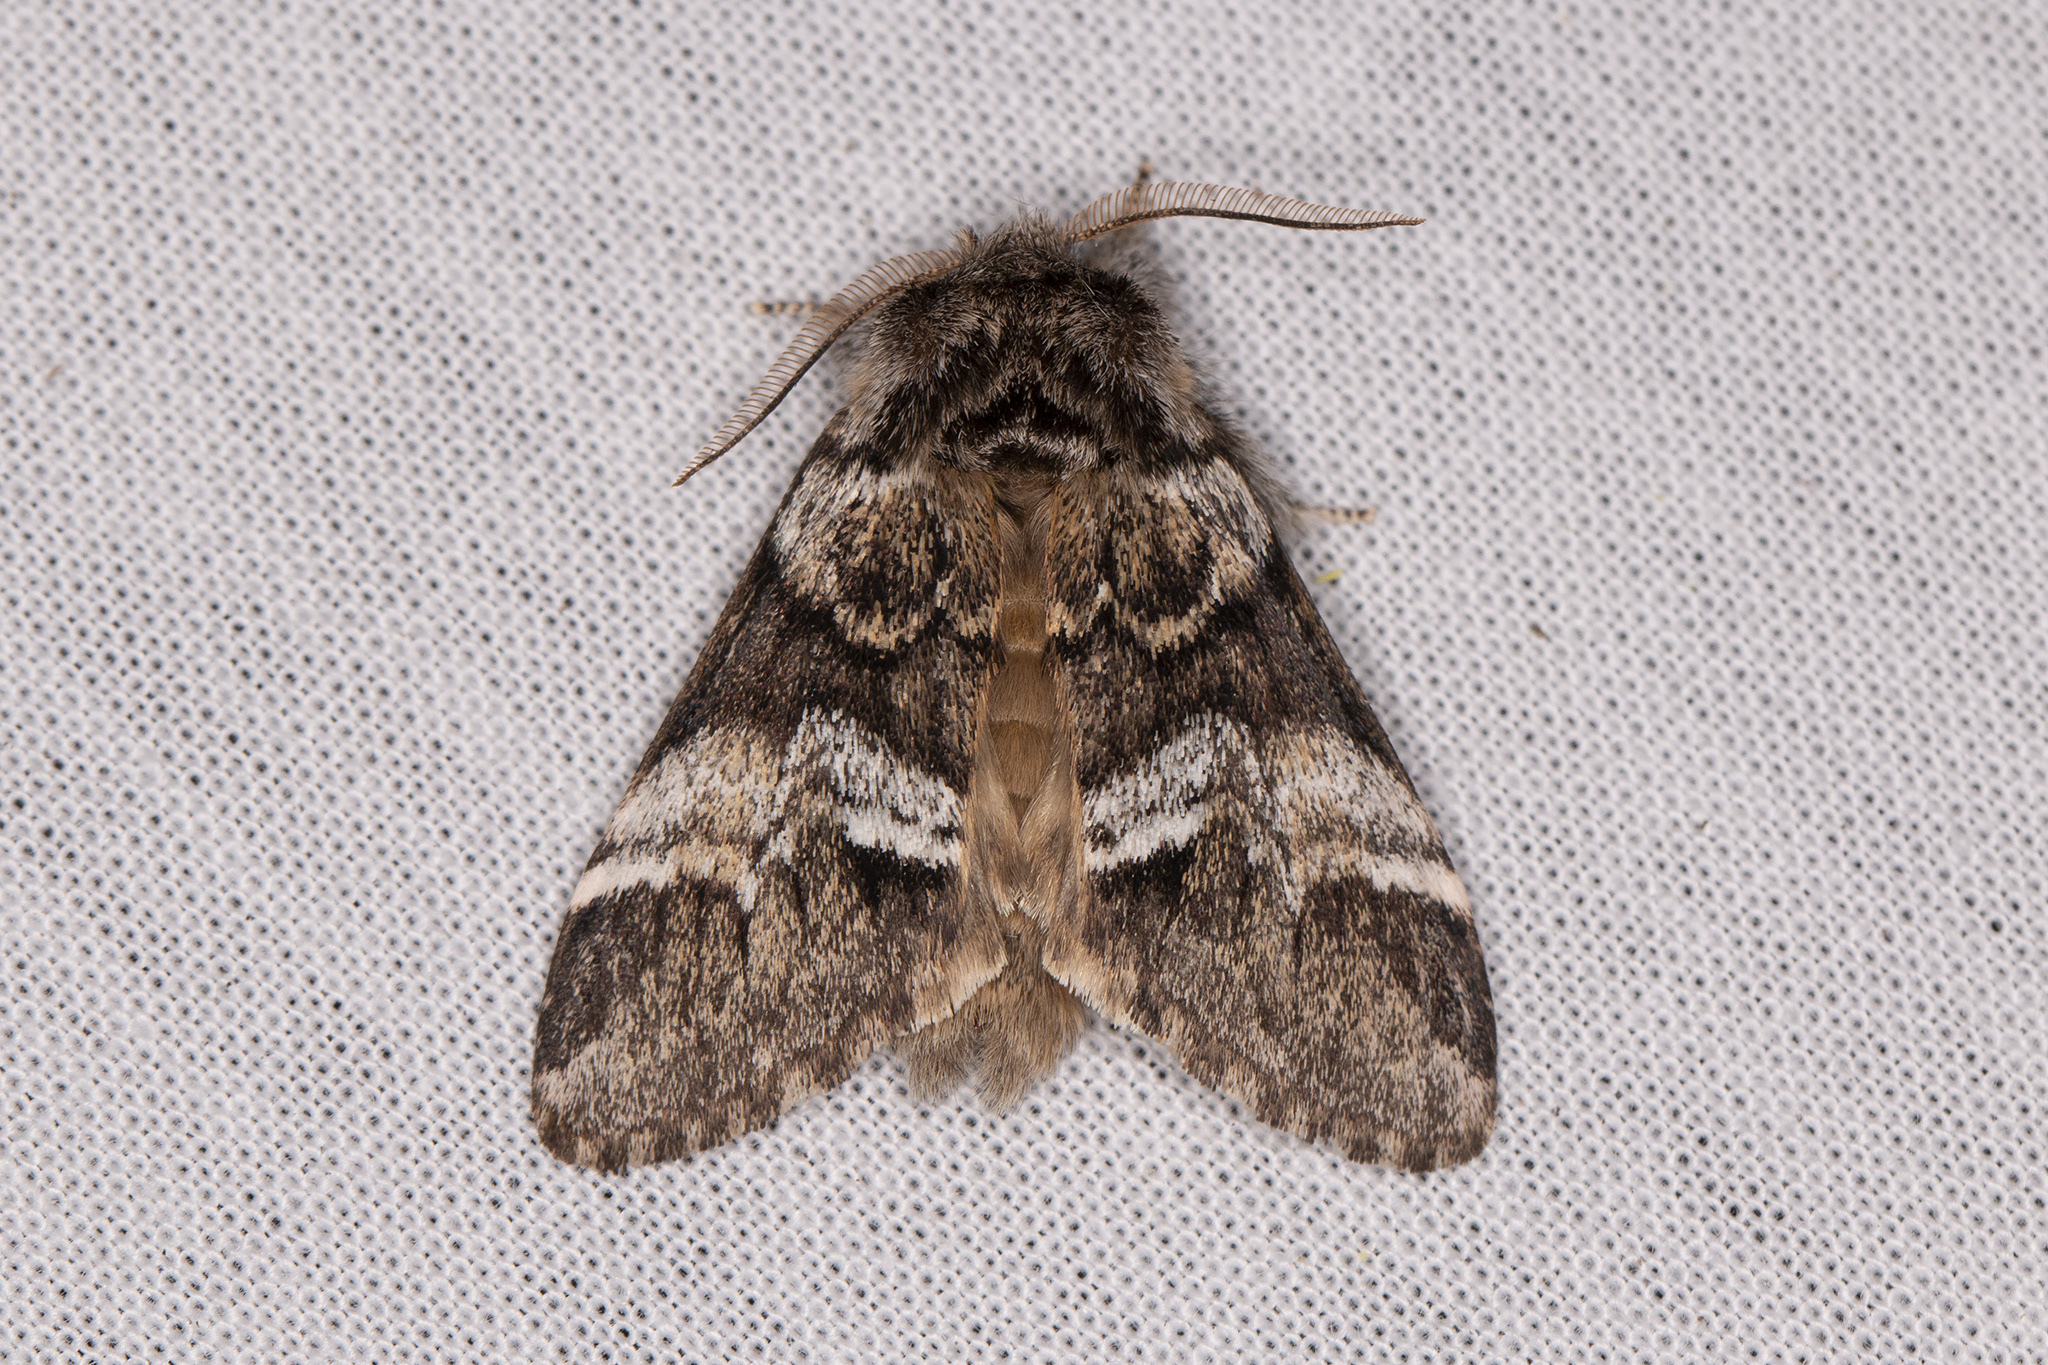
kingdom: Animalia
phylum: Arthropoda
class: Insecta
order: Lepidoptera
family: Notodontidae
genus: Drymonia
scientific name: Drymonia dodonaea
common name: Marbled brown
